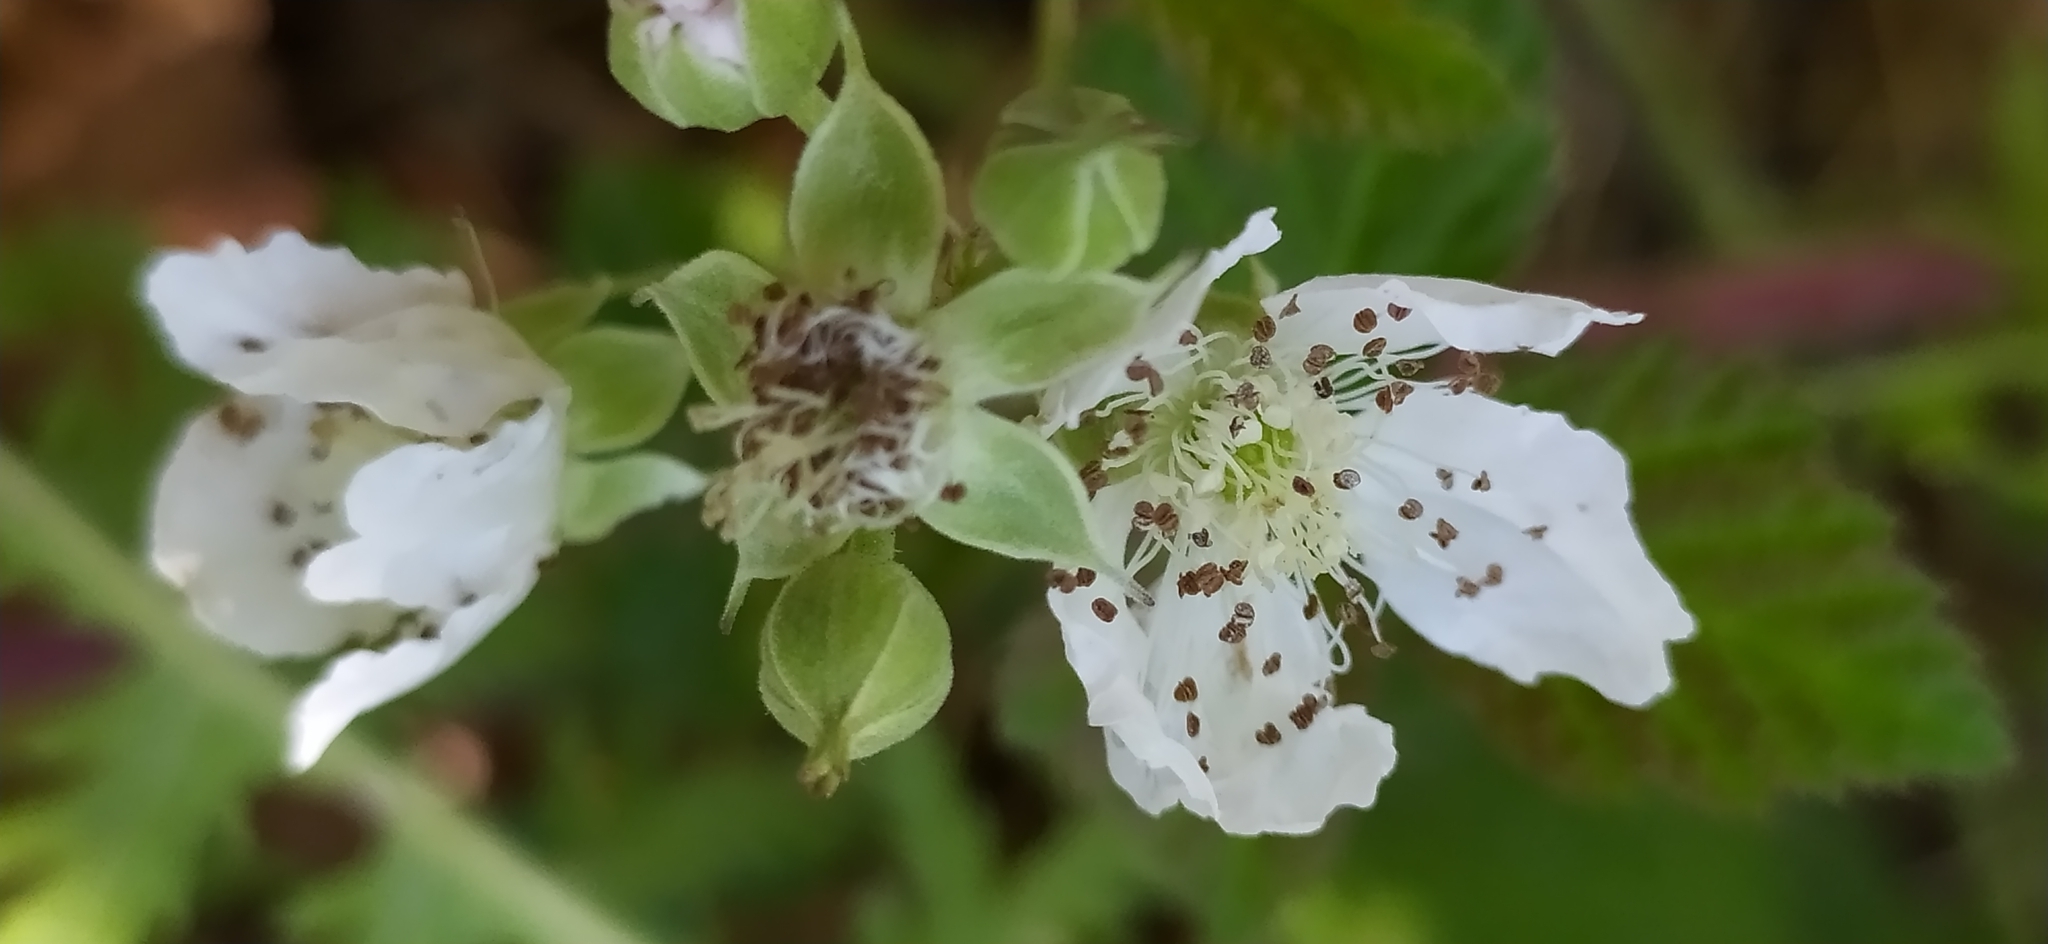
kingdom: Plantae
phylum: Tracheophyta
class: Magnoliopsida
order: Rosales
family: Rosaceae
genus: Rubus
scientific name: Rubus sanctus
